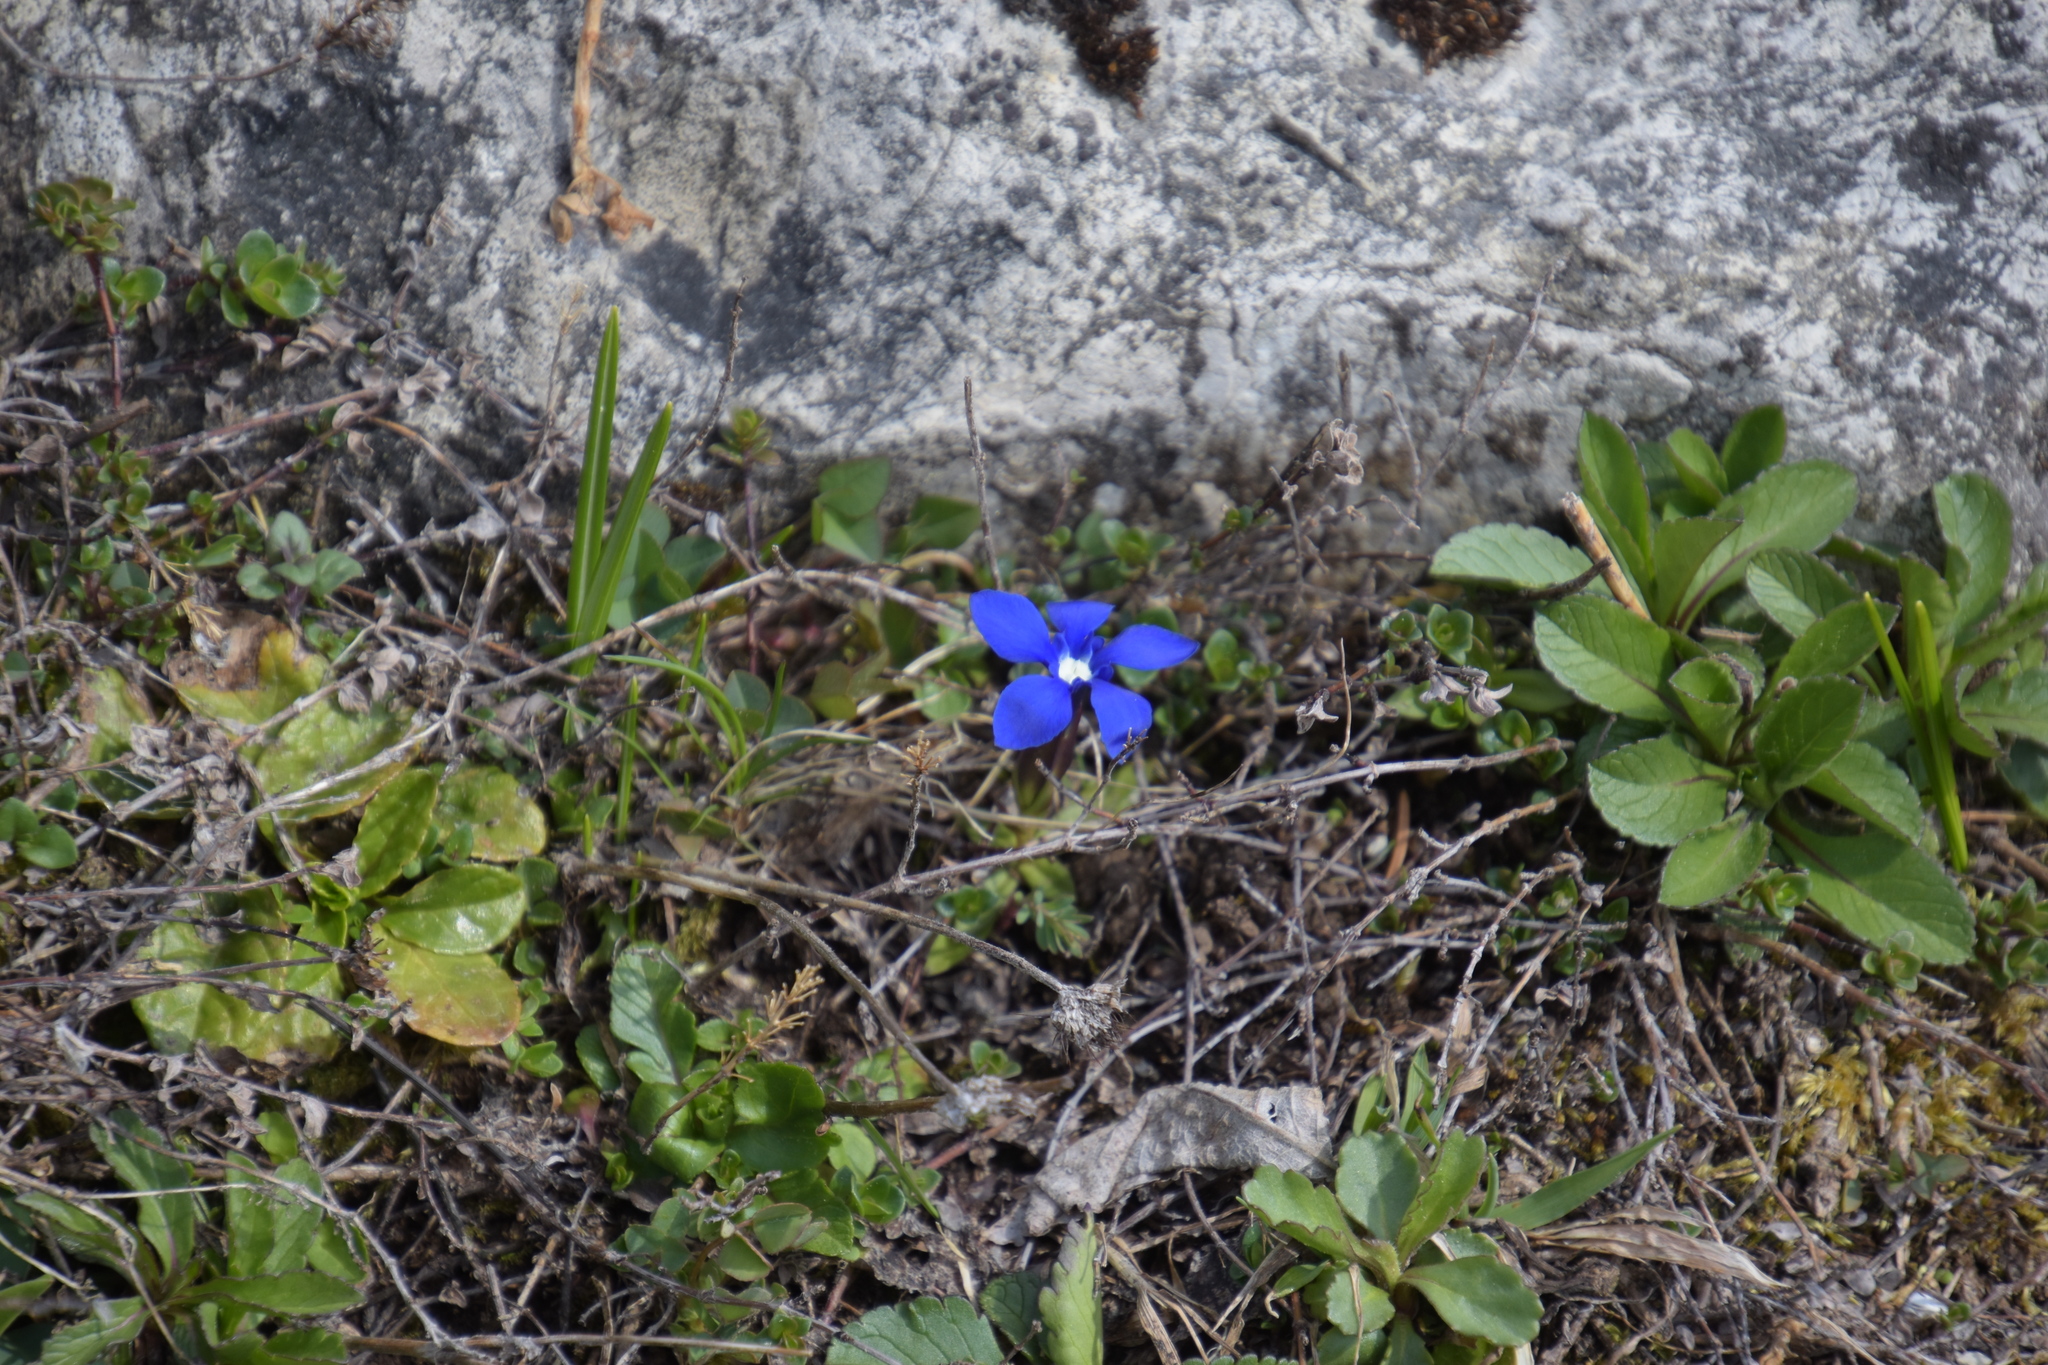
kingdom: Plantae
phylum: Tracheophyta
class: Magnoliopsida
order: Gentianales
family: Gentianaceae
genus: Gentiana
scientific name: Gentiana verna
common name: Spring gentian
